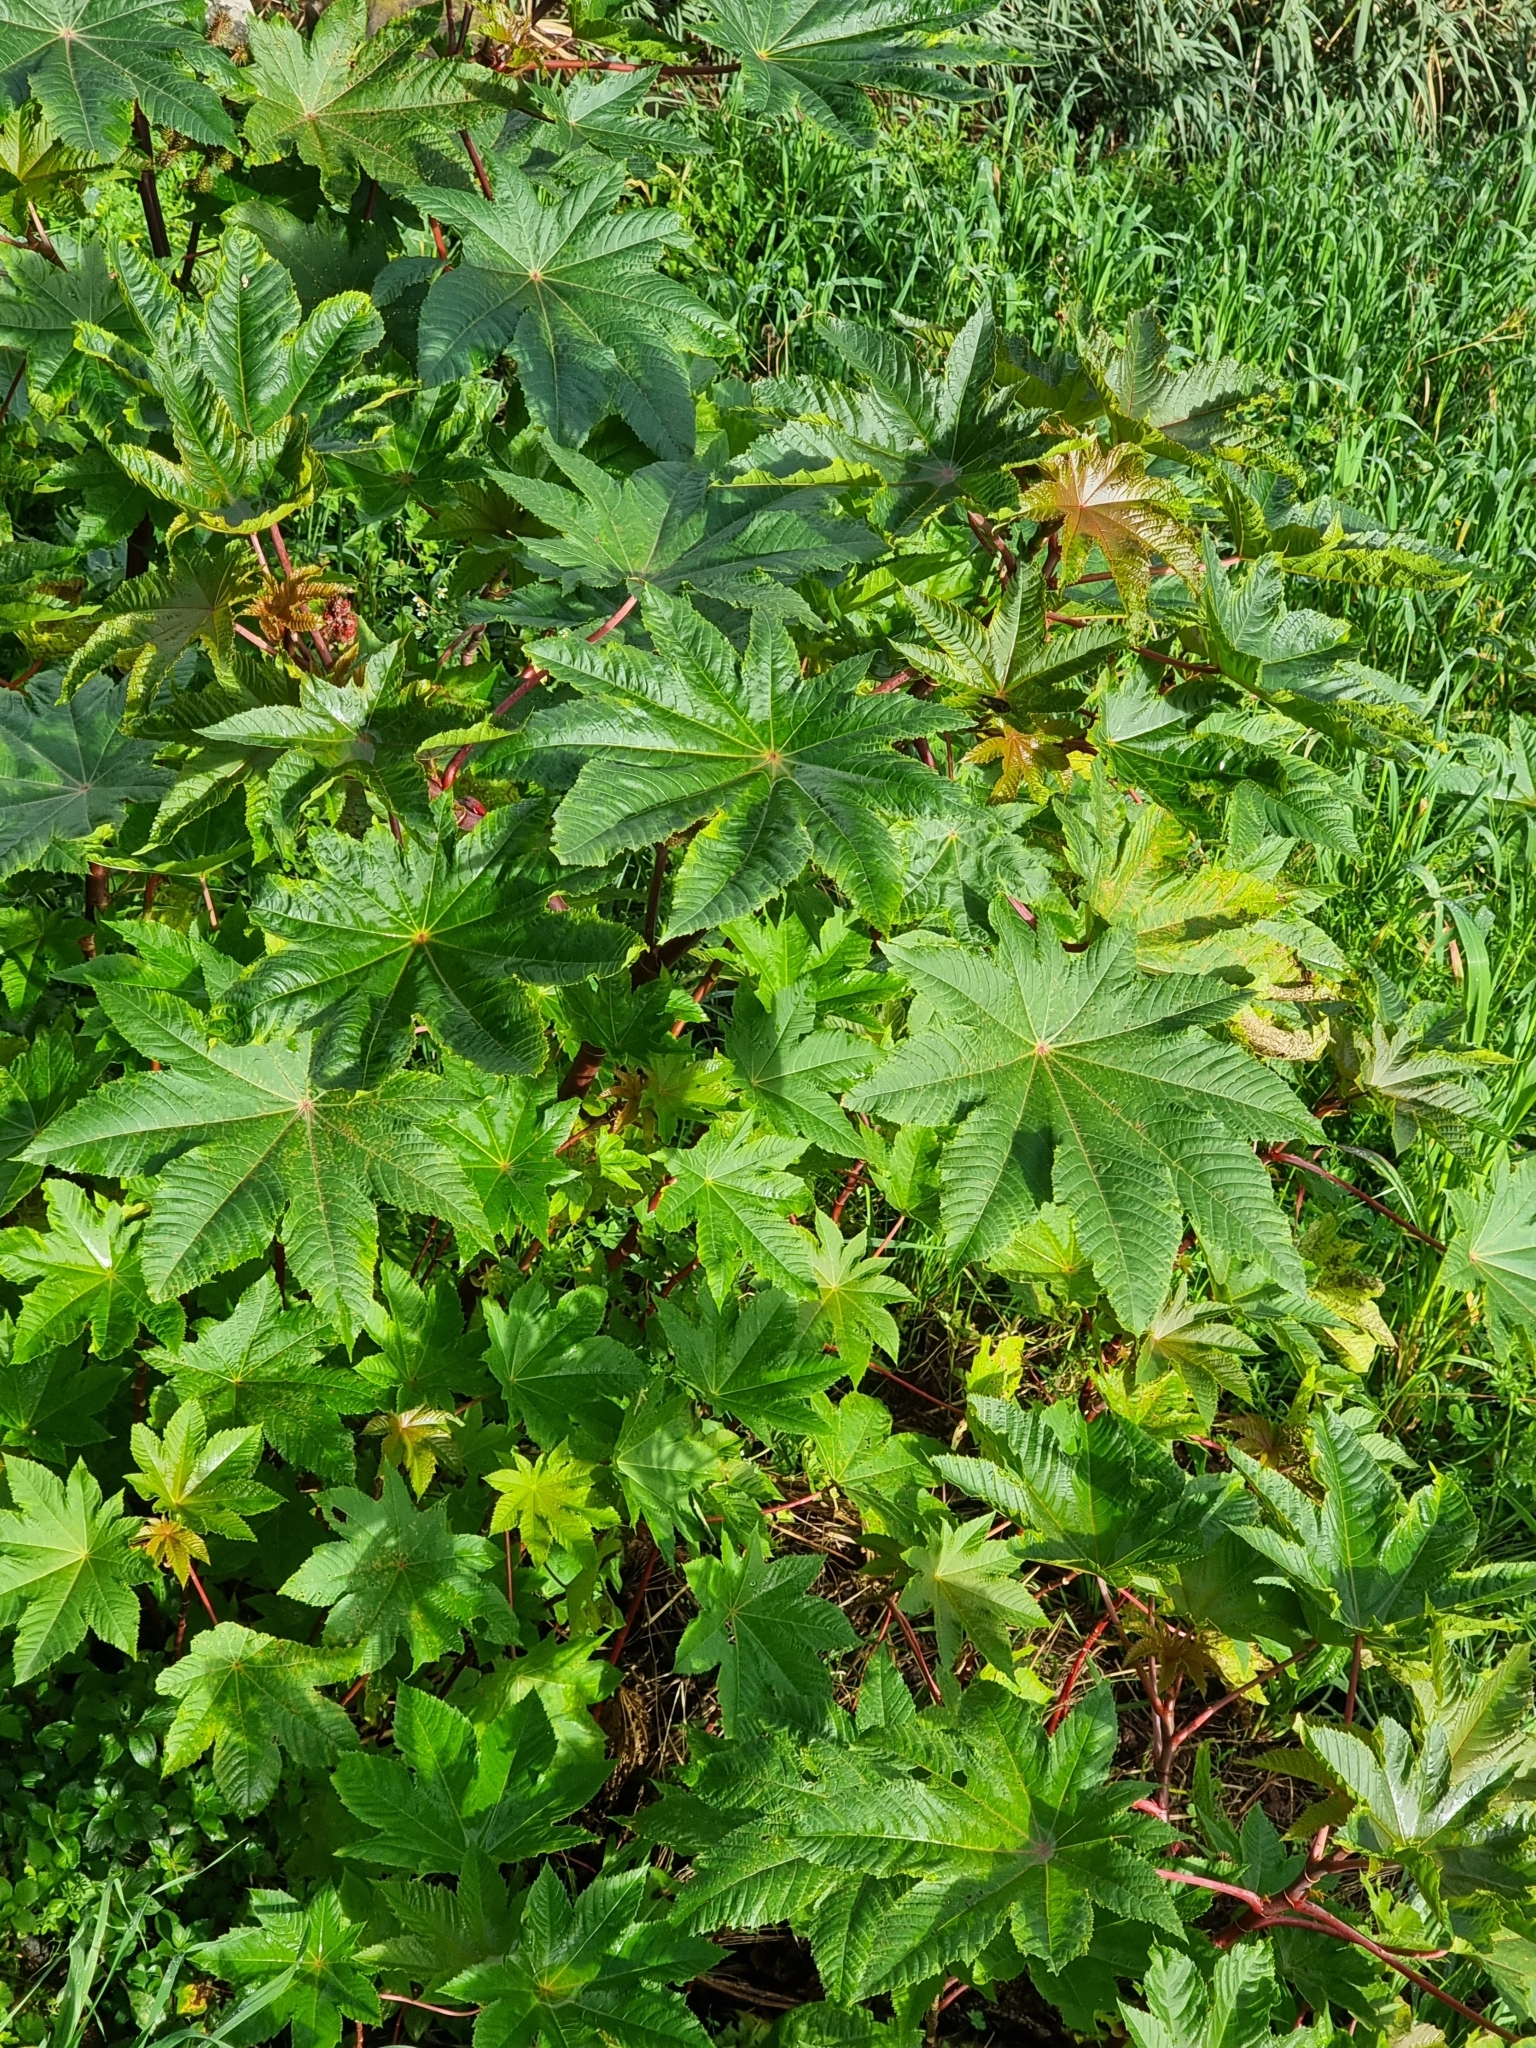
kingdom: Plantae
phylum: Tracheophyta
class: Magnoliopsida
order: Malpighiales
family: Euphorbiaceae
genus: Ricinus
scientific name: Ricinus communis
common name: Castor-oil-plant
